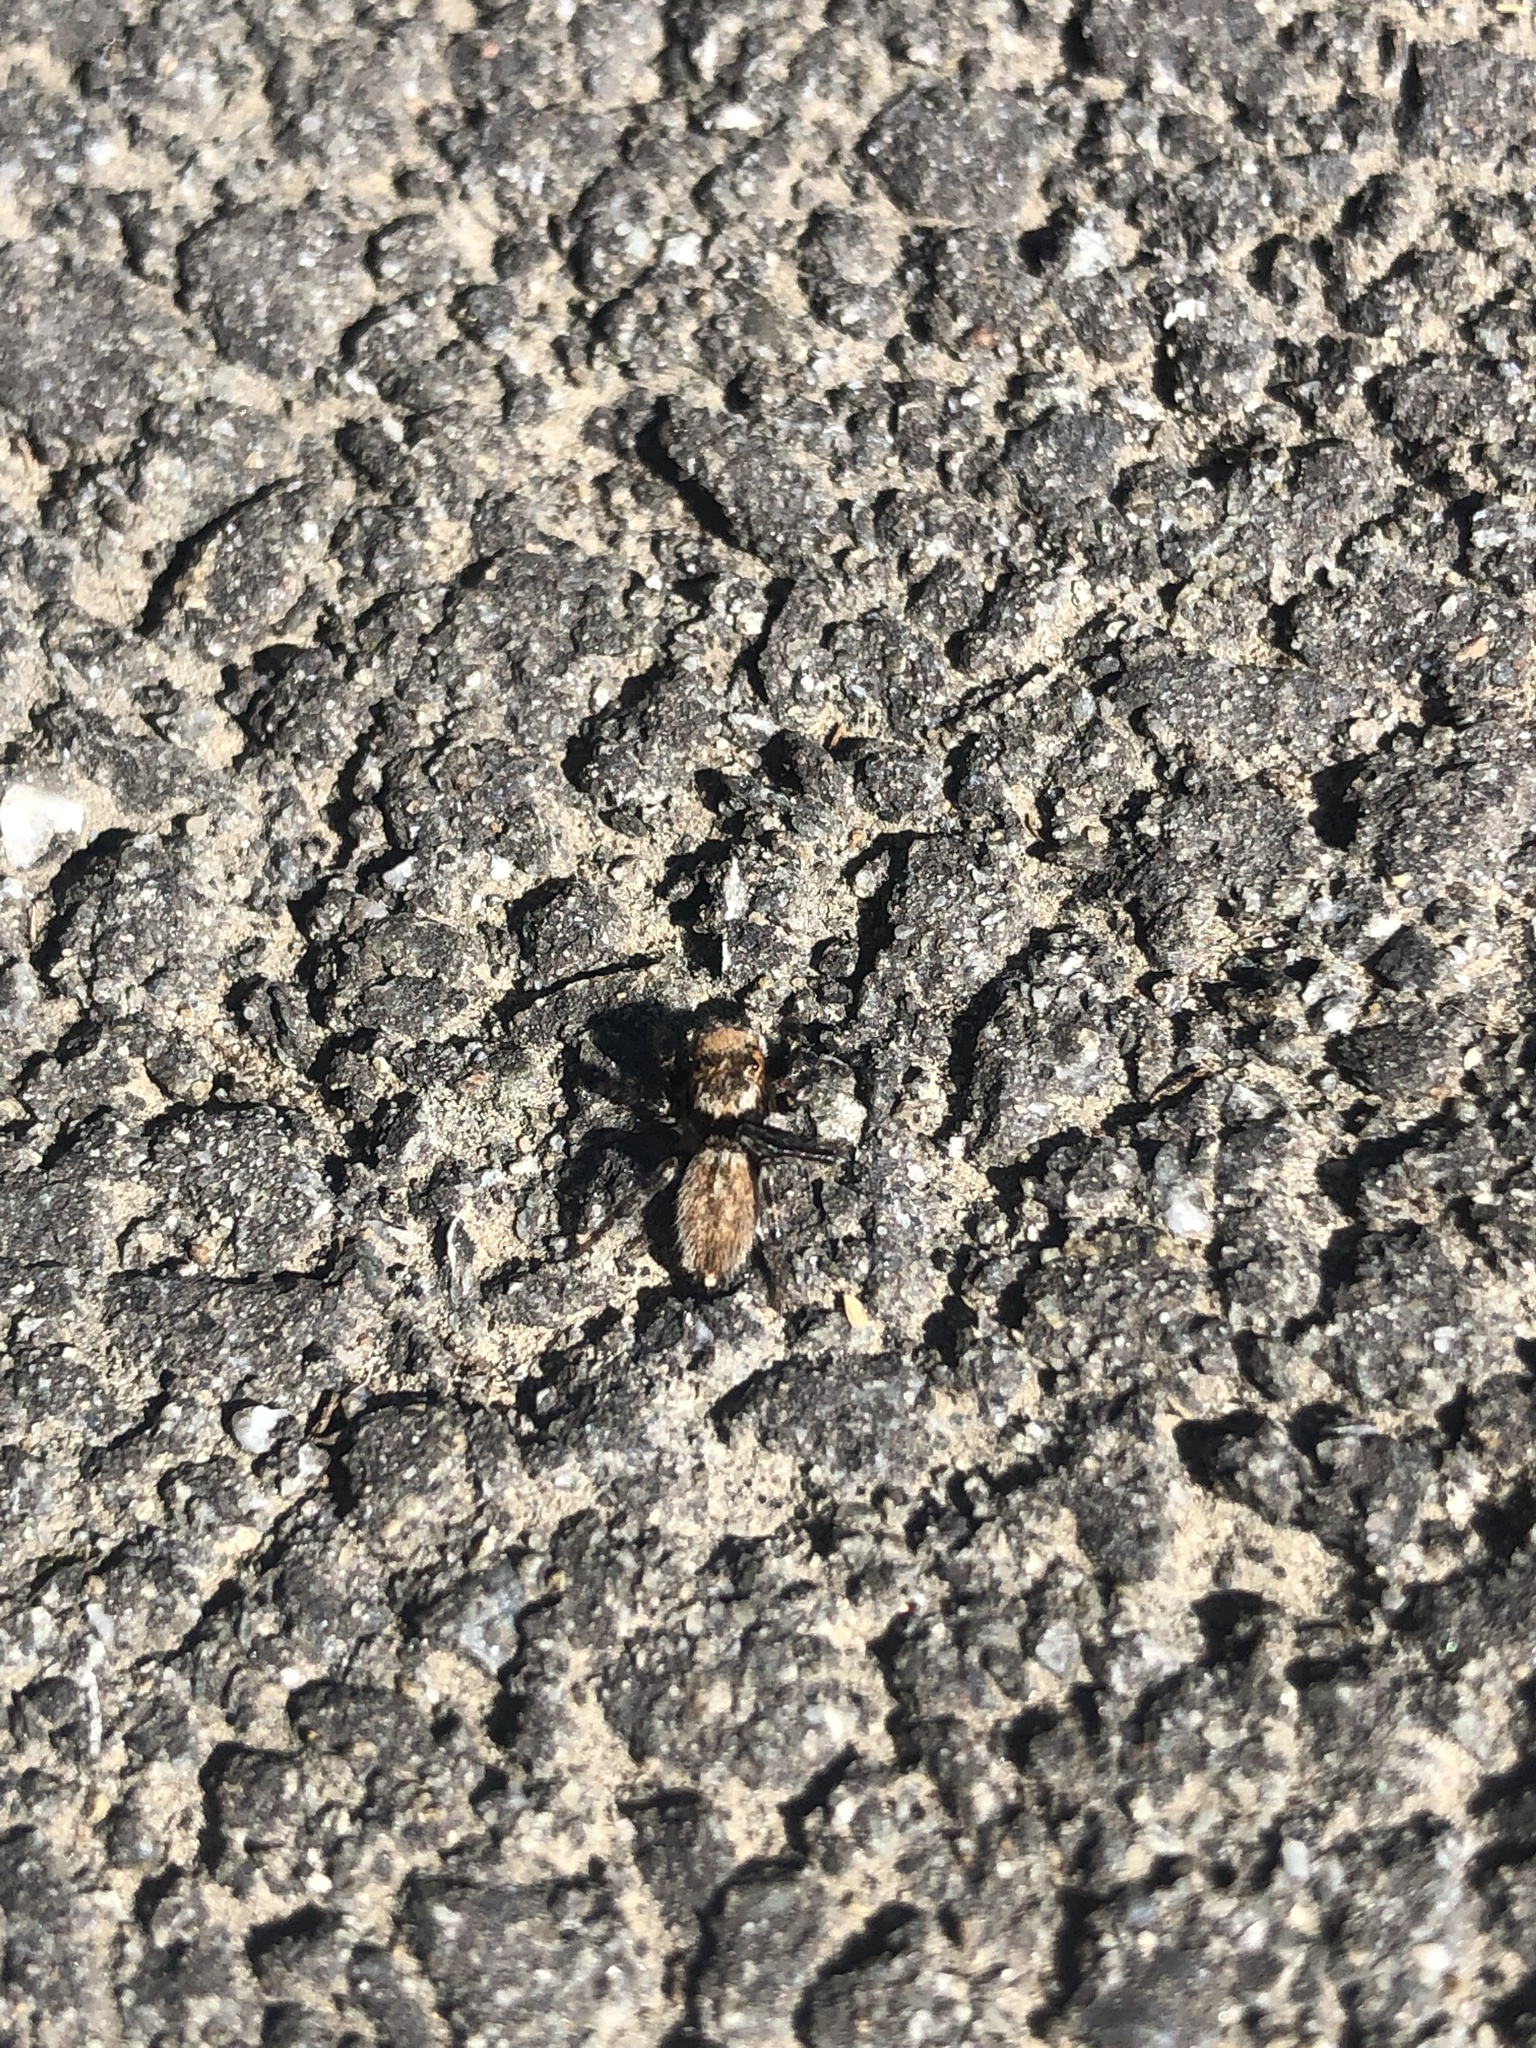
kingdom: Animalia
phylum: Arthropoda
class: Arachnida
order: Araneae
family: Salticidae
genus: Maratus
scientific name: Maratus griseus
